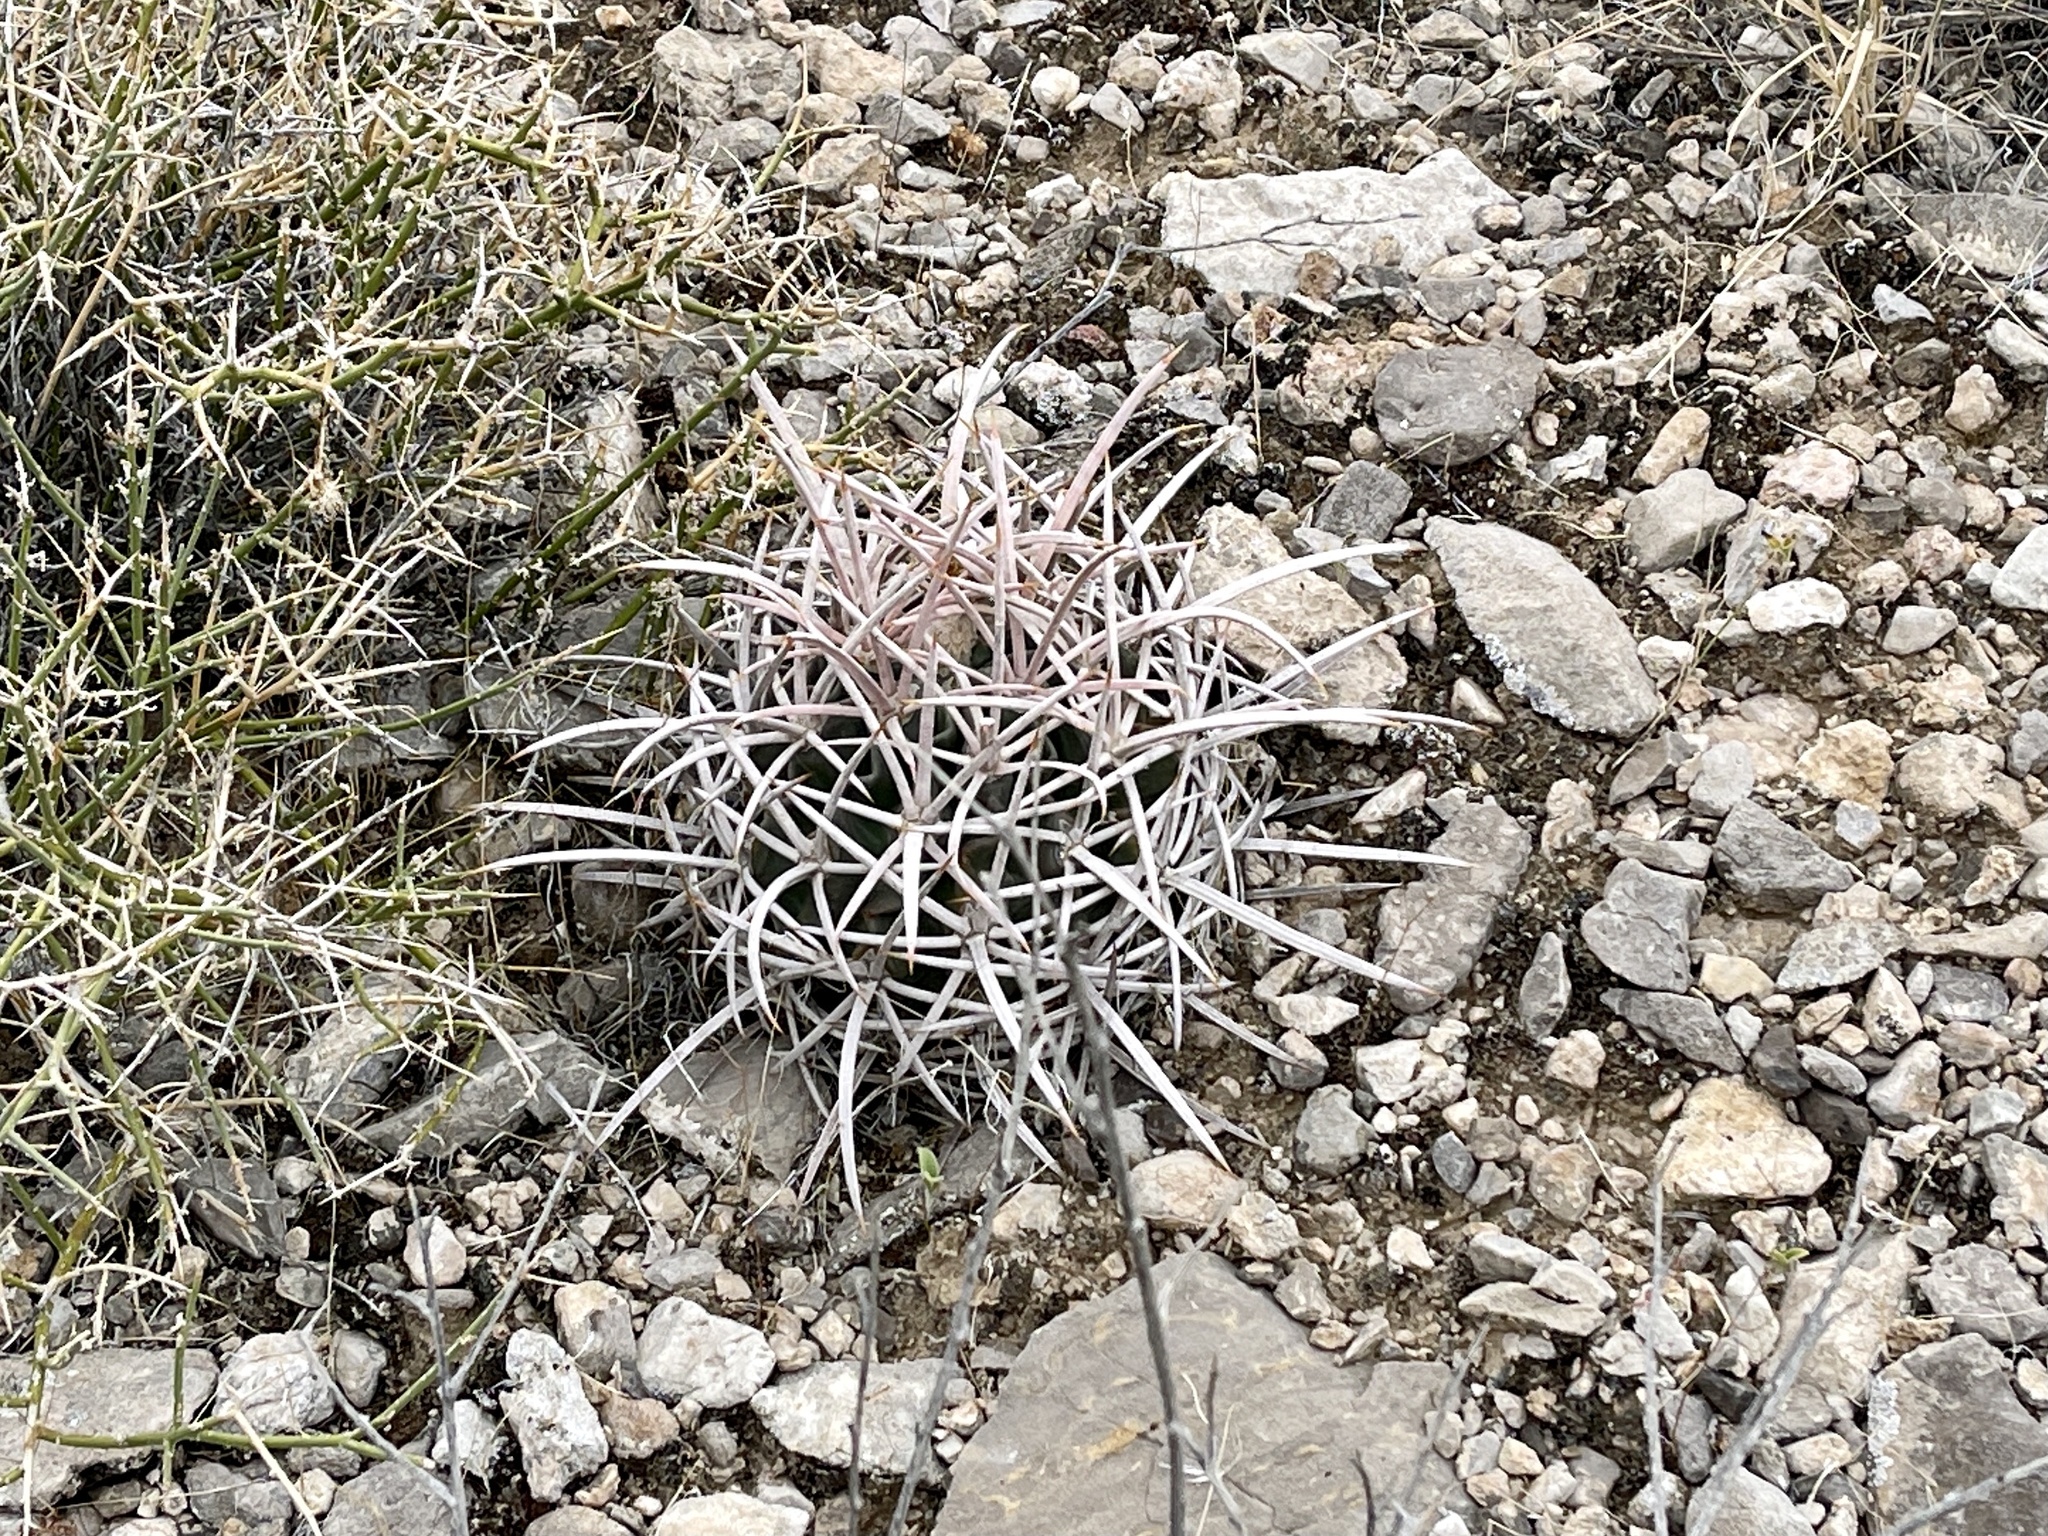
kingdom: Plantae
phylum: Tracheophyta
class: Magnoliopsida
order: Caryophyllales
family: Cactaceae
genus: Echinocactus
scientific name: Echinocactus polycephalus
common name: Cottontop cactus
